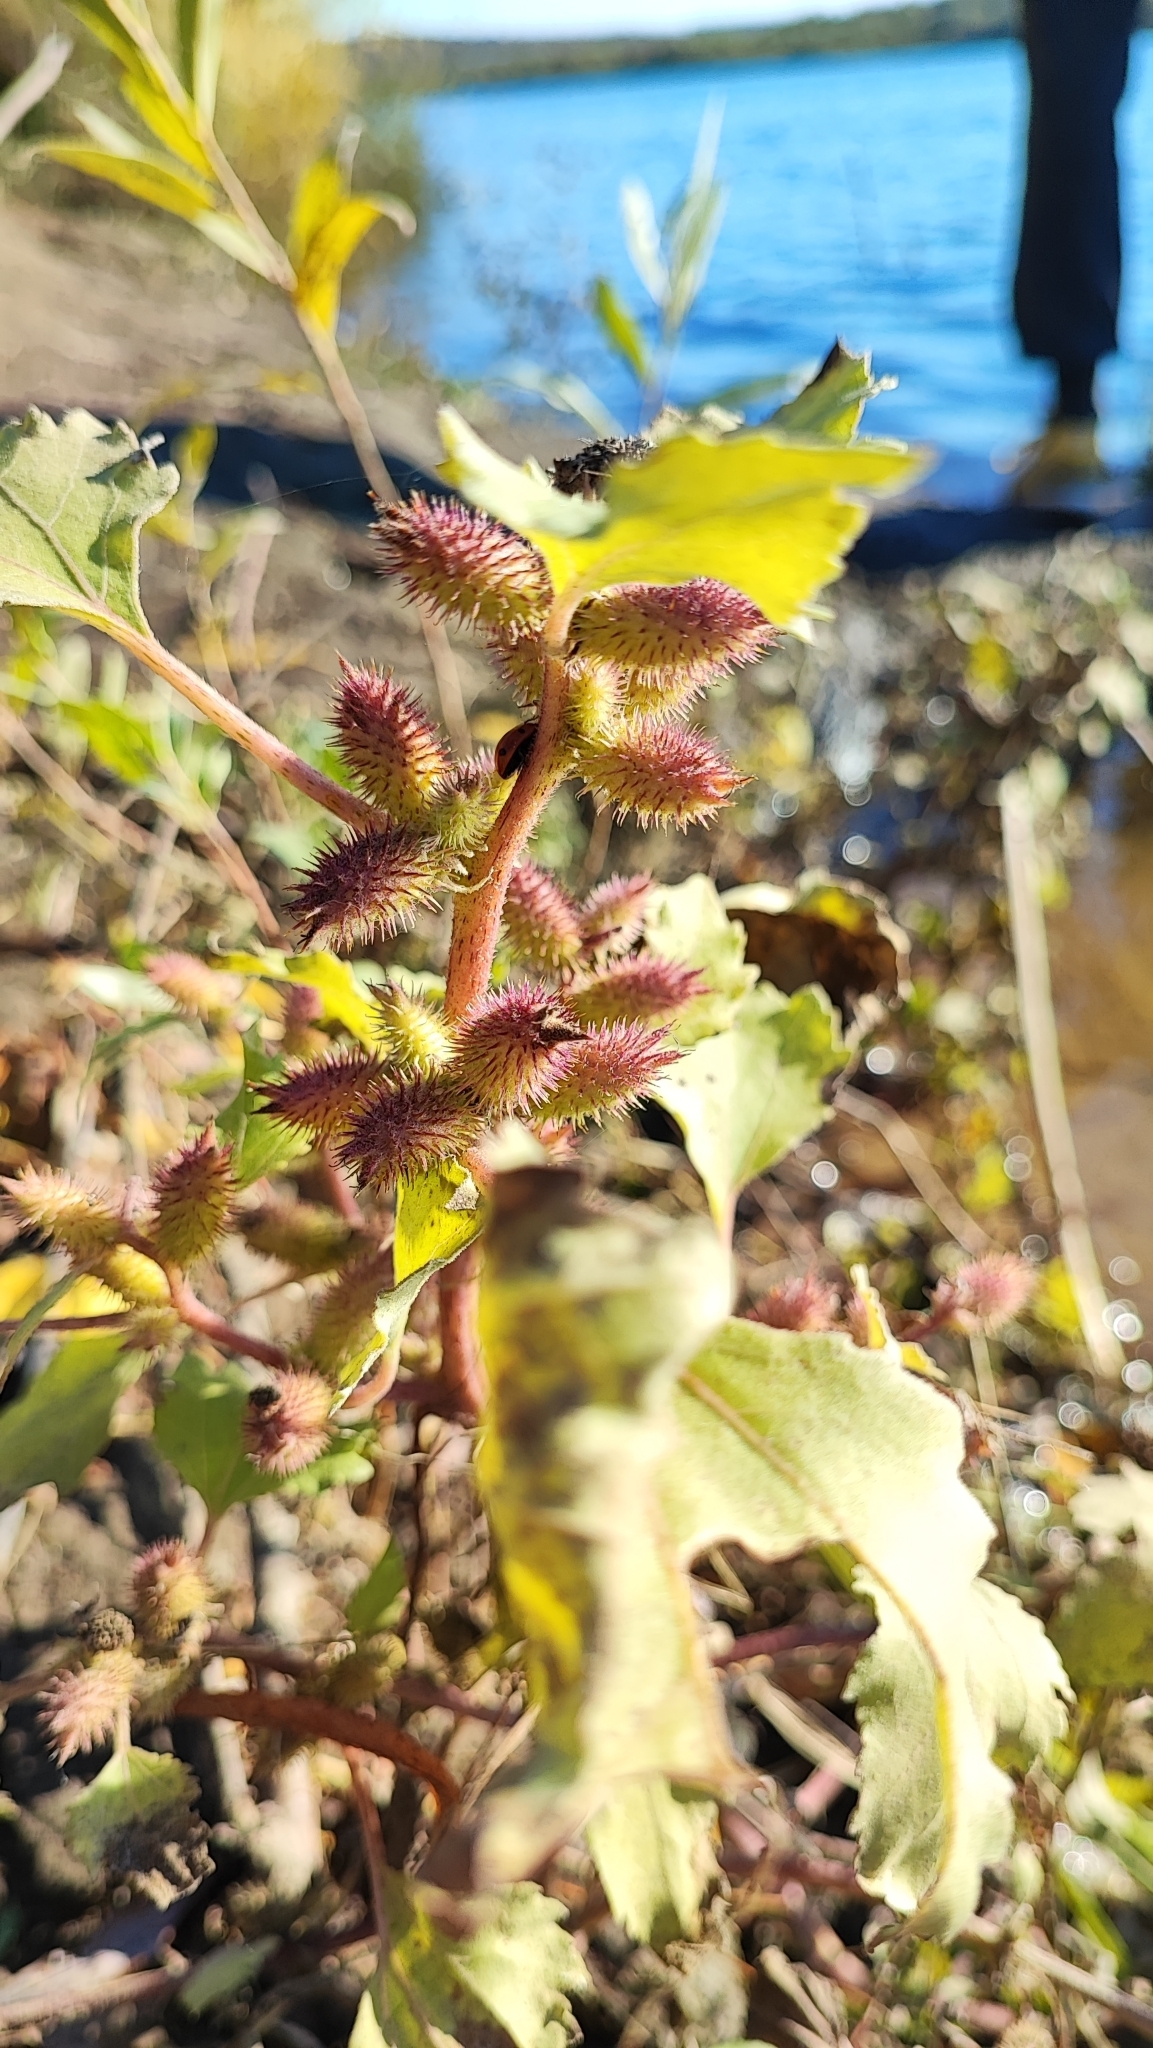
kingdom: Plantae
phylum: Tracheophyta
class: Magnoliopsida
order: Asterales
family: Asteraceae
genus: Xanthium
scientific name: Xanthium orientale
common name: Californian burr
